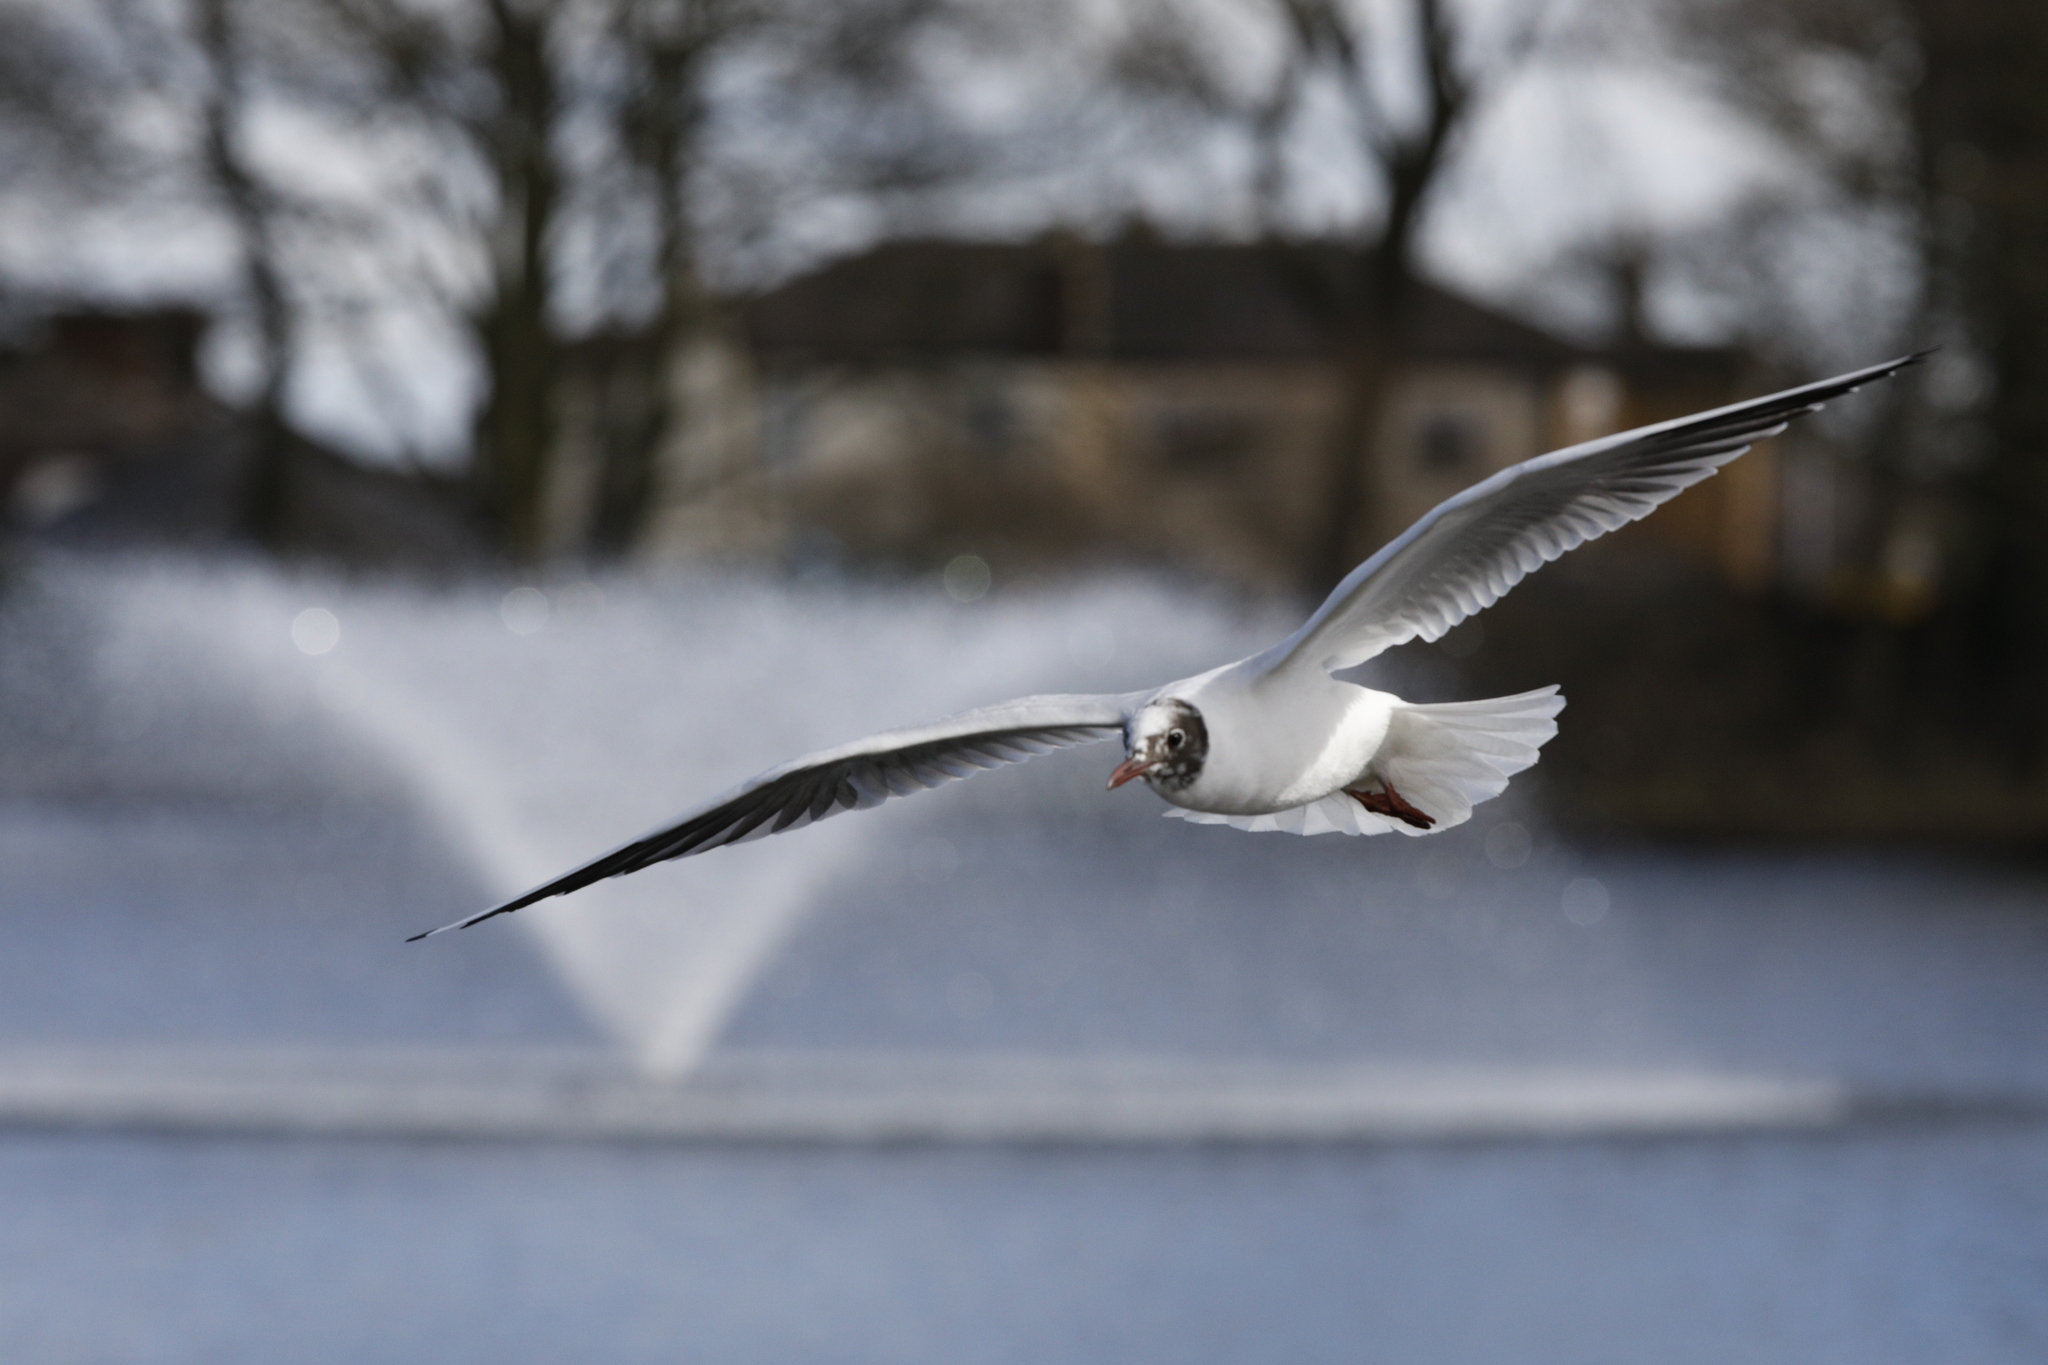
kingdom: Animalia
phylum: Chordata
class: Aves
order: Charadriiformes
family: Laridae
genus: Chroicocephalus
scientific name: Chroicocephalus ridibundus
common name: Black-headed gull
